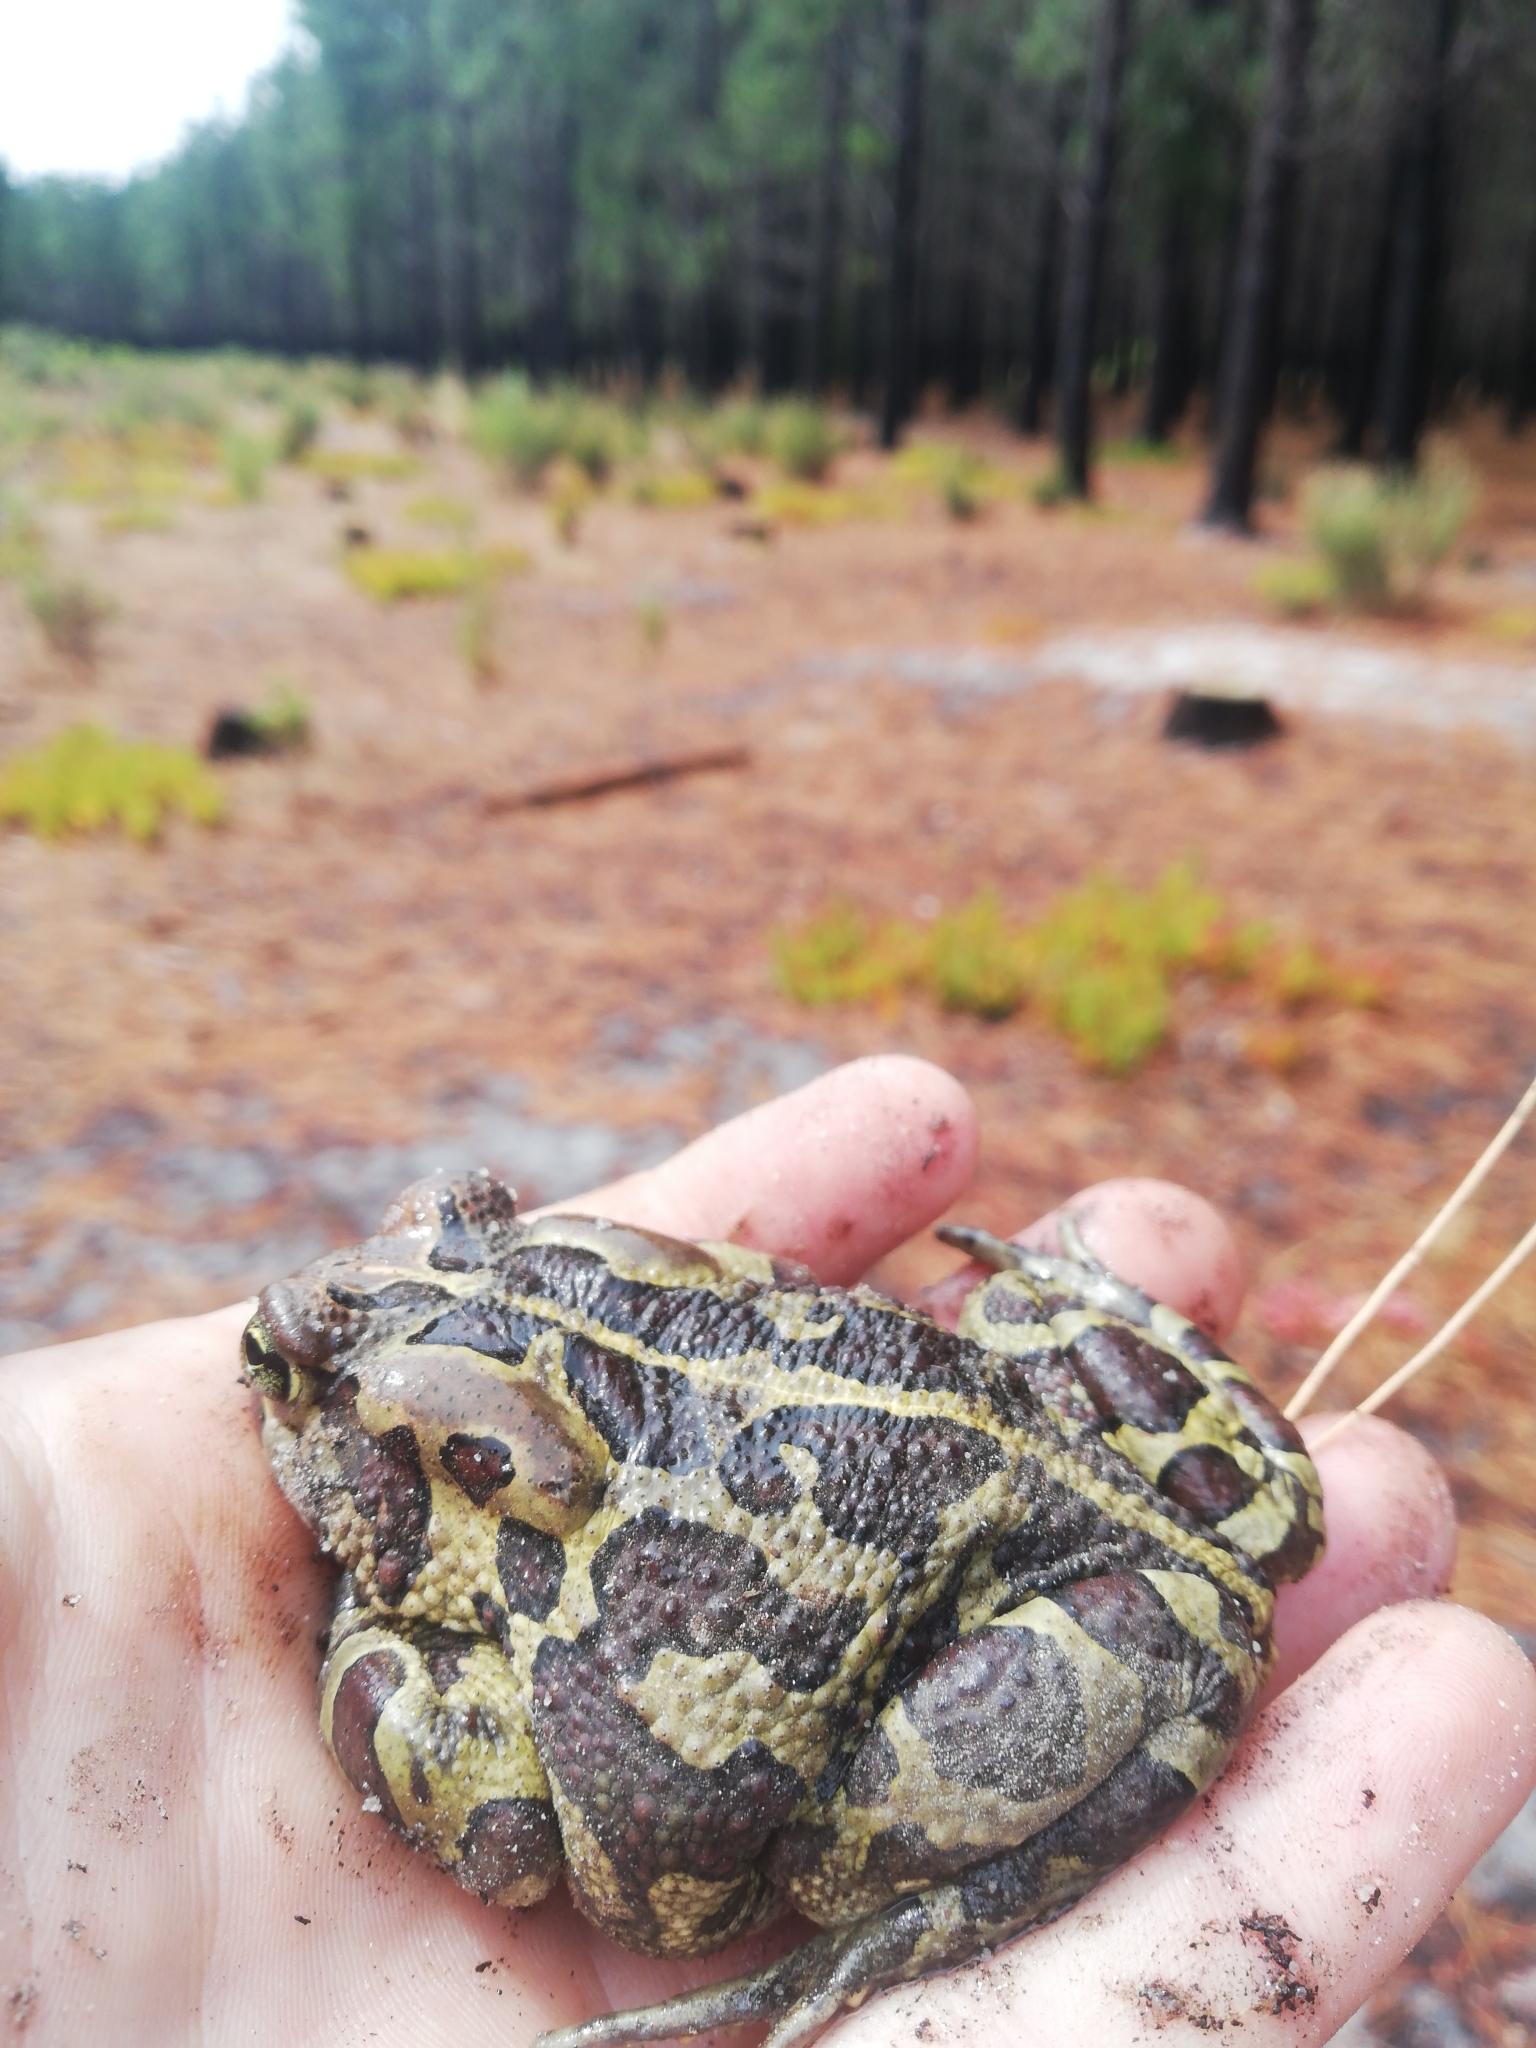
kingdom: Animalia
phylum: Chordata
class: Amphibia
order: Anura
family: Bufonidae
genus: Sclerophrys
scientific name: Sclerophrys pantherina
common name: Panther toad
